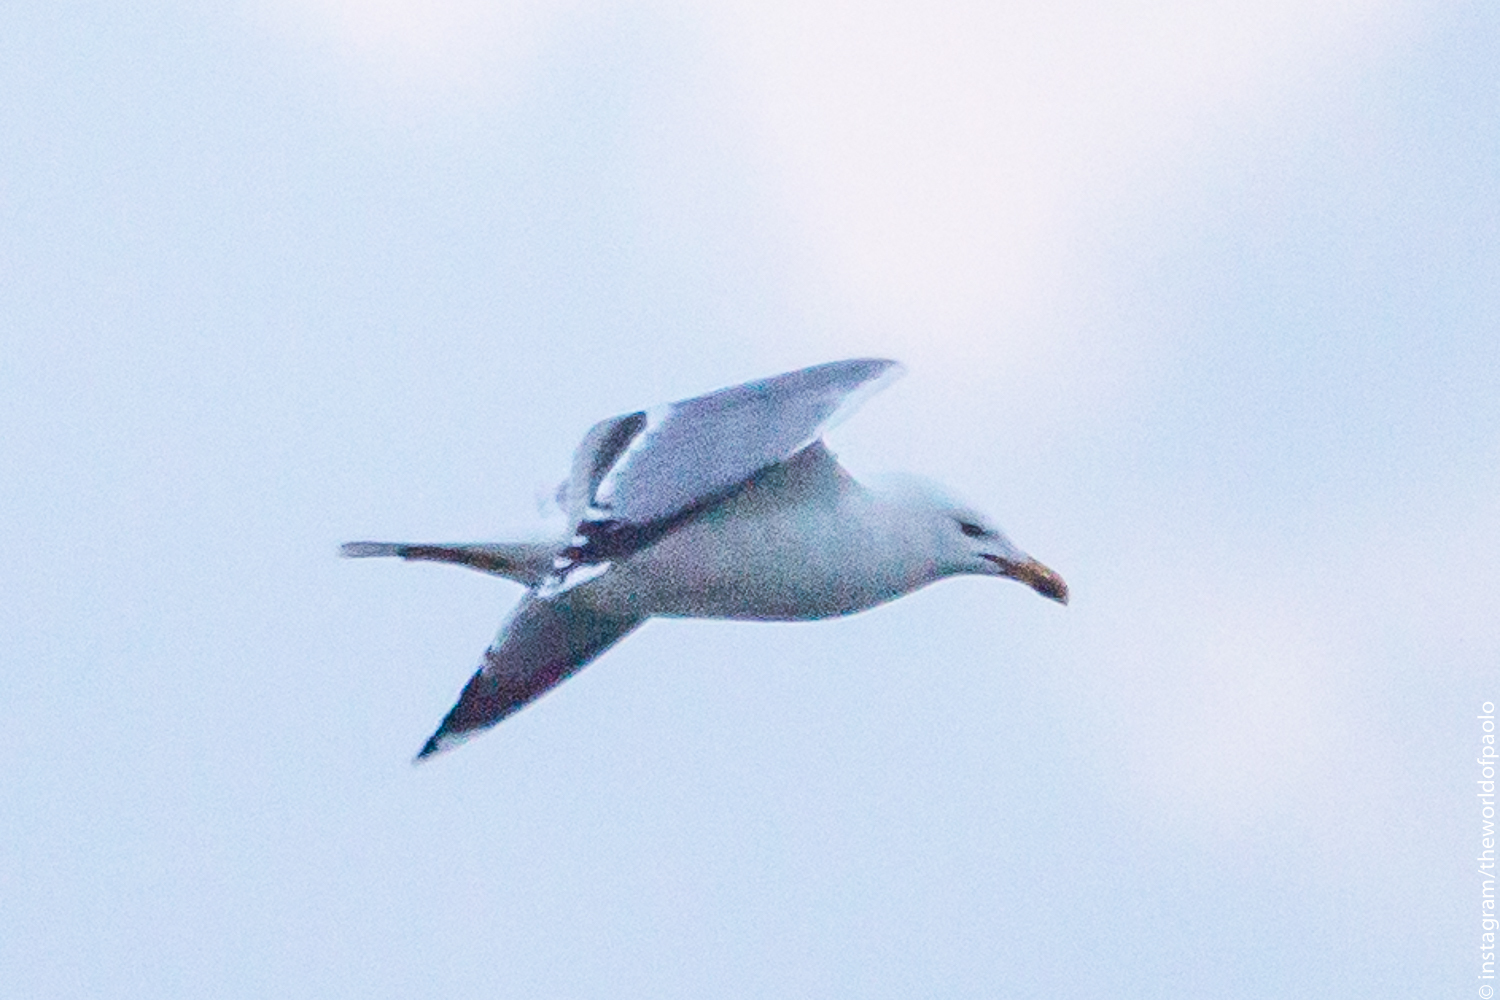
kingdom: Animalia
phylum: Chordata
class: Aves
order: Charadriiformes
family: Laridae
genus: Larus
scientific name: Larus michahellis
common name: Yellow-legged gull
